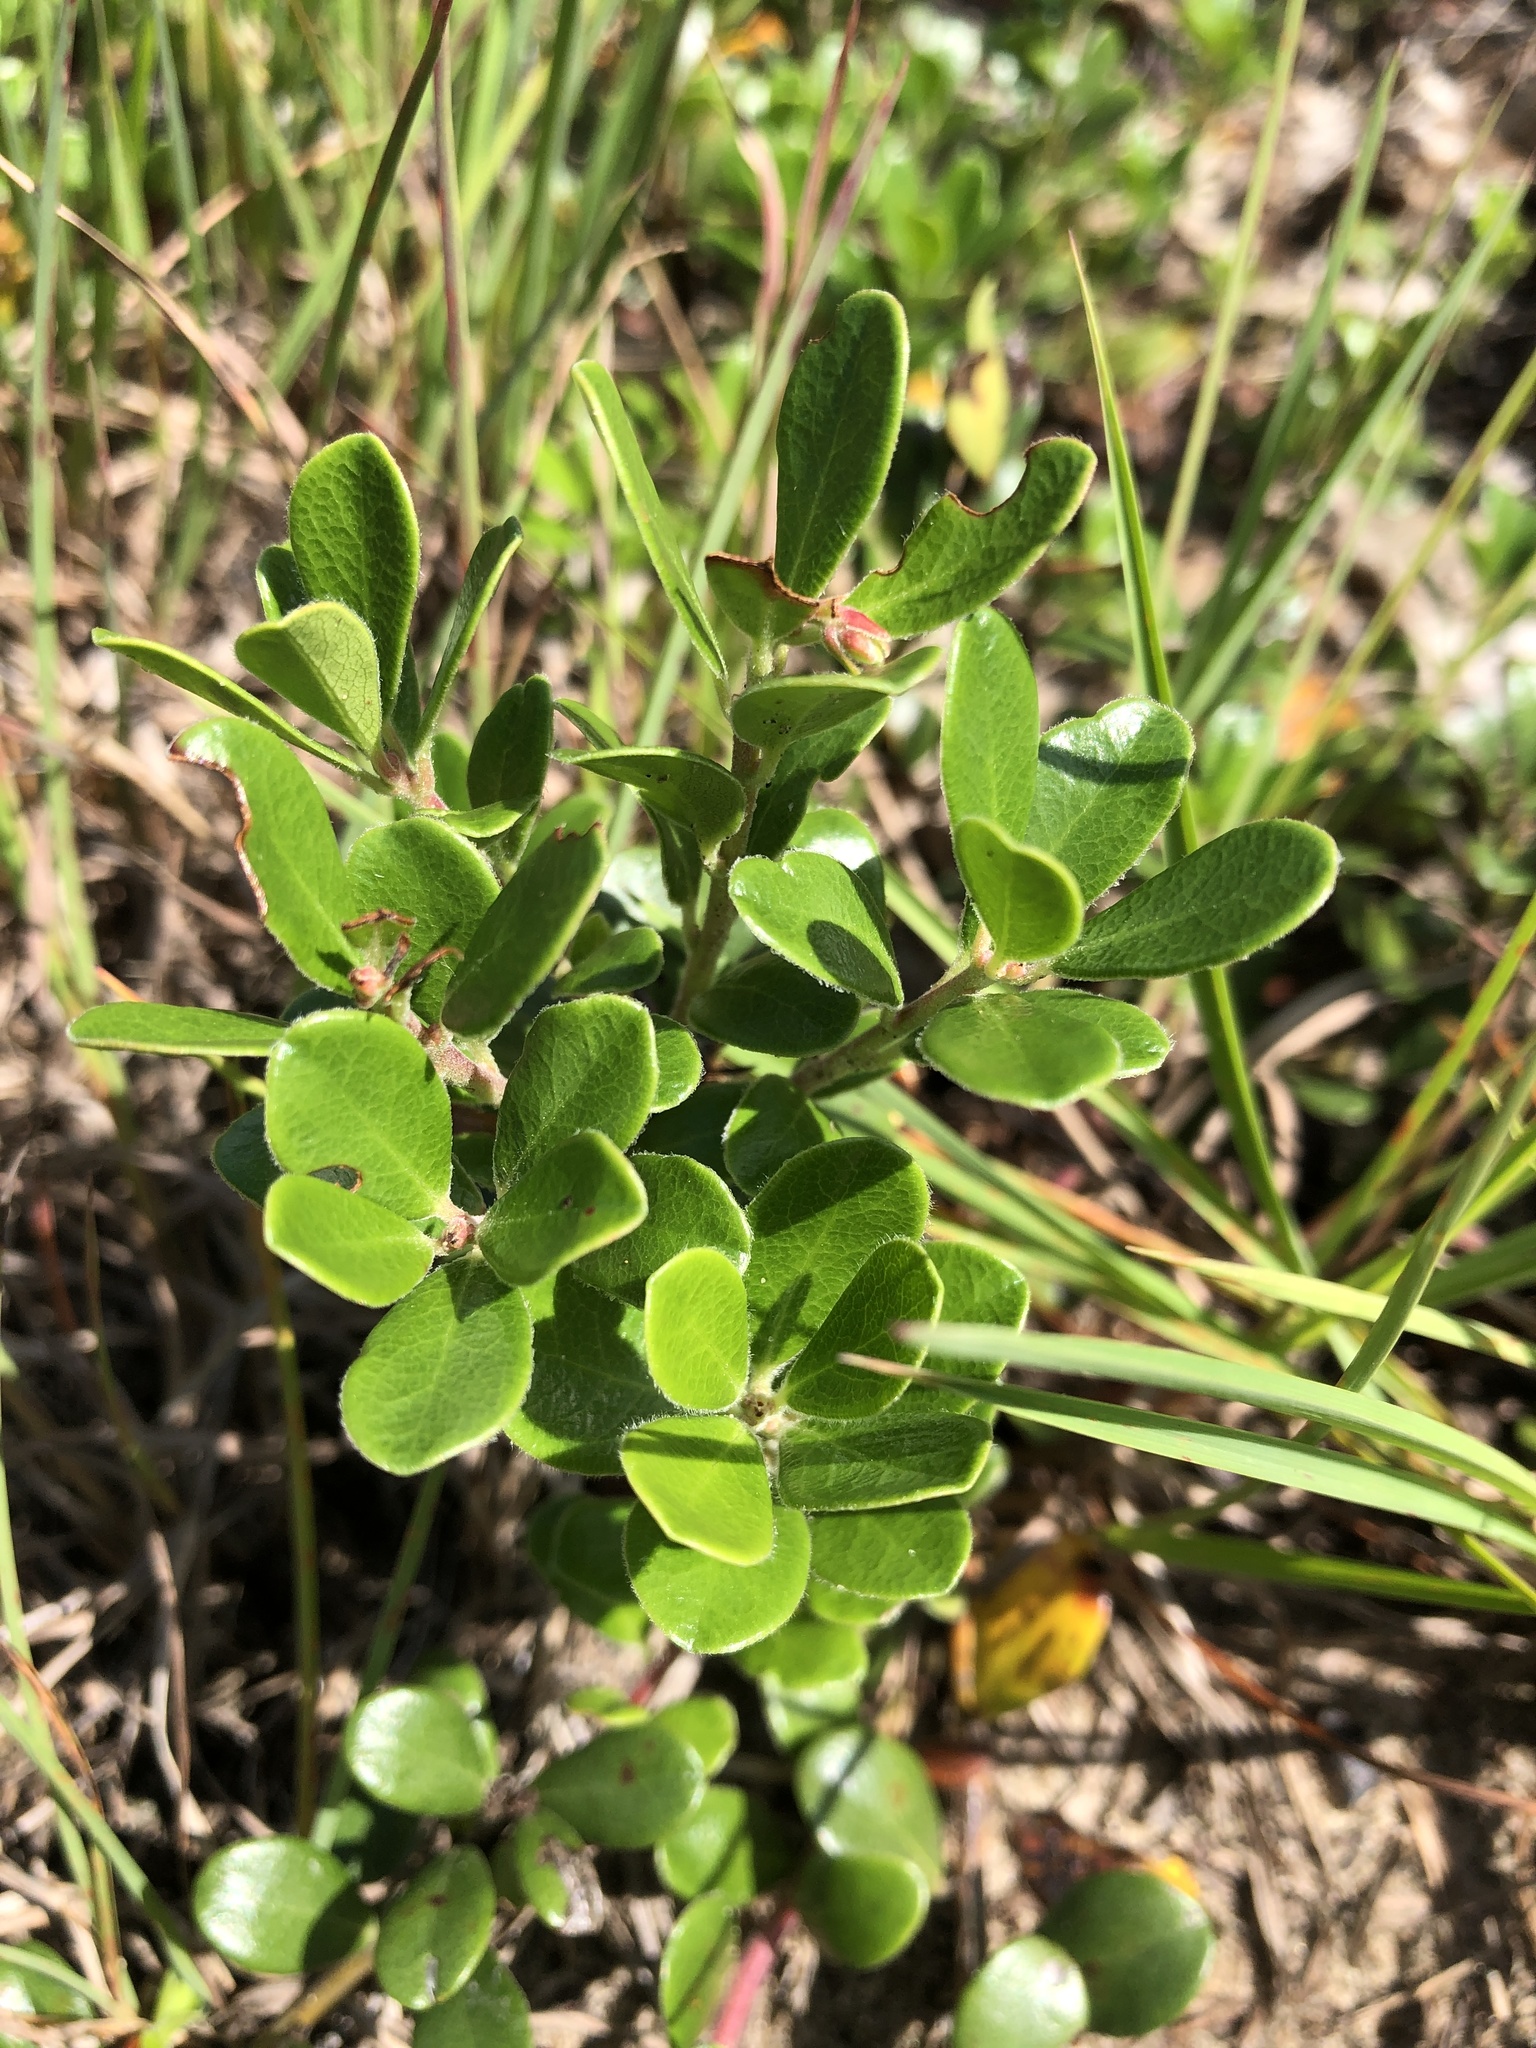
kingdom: Plantae
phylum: Tracheophyta
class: Magnoliopsida
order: Ericales
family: Ericaceae
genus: Arctostaphylos
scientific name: Arctostaphylos uva-ursi
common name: Bearberry
